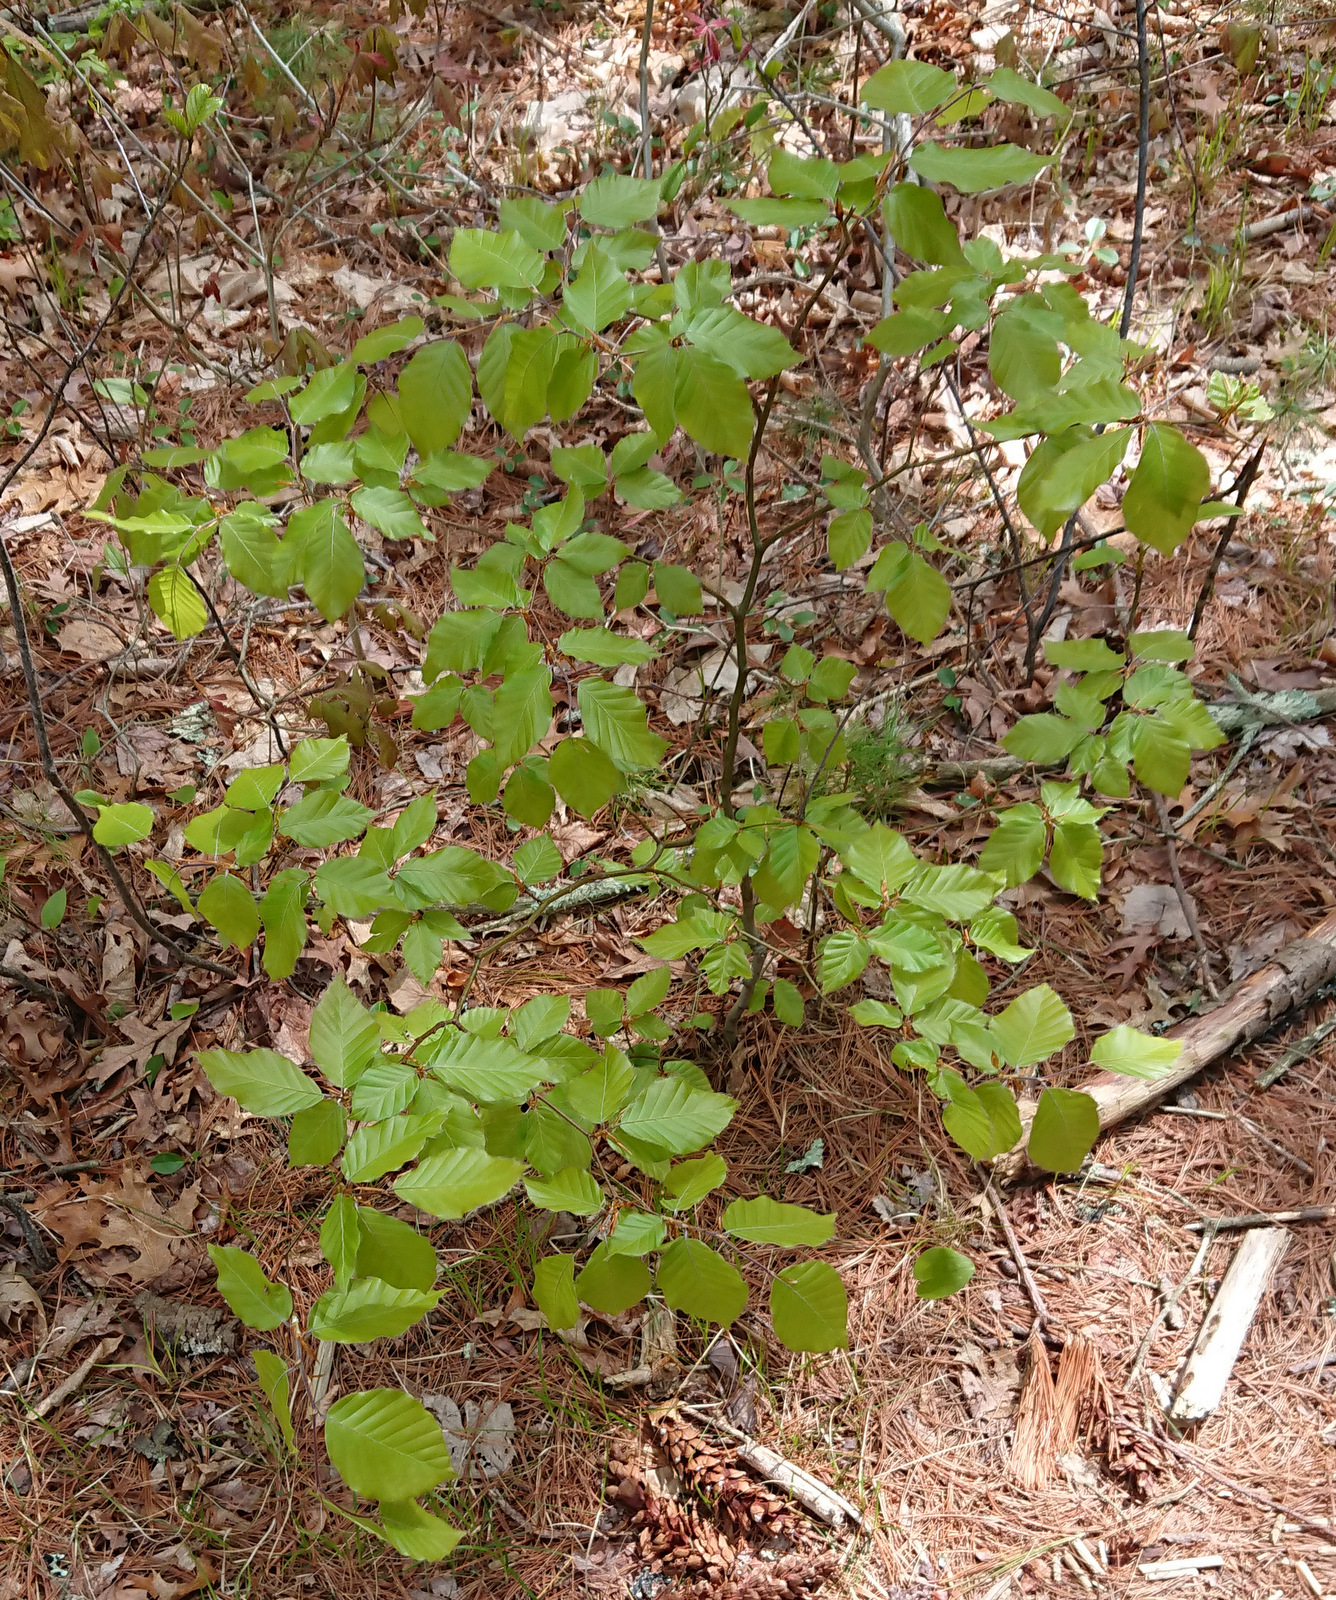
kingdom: Plantae
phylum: Tracheophyta
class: Magnoliopsida
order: Fagales
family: Fagaceae
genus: Fagus
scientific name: Fagus sylvatica
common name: Beech
